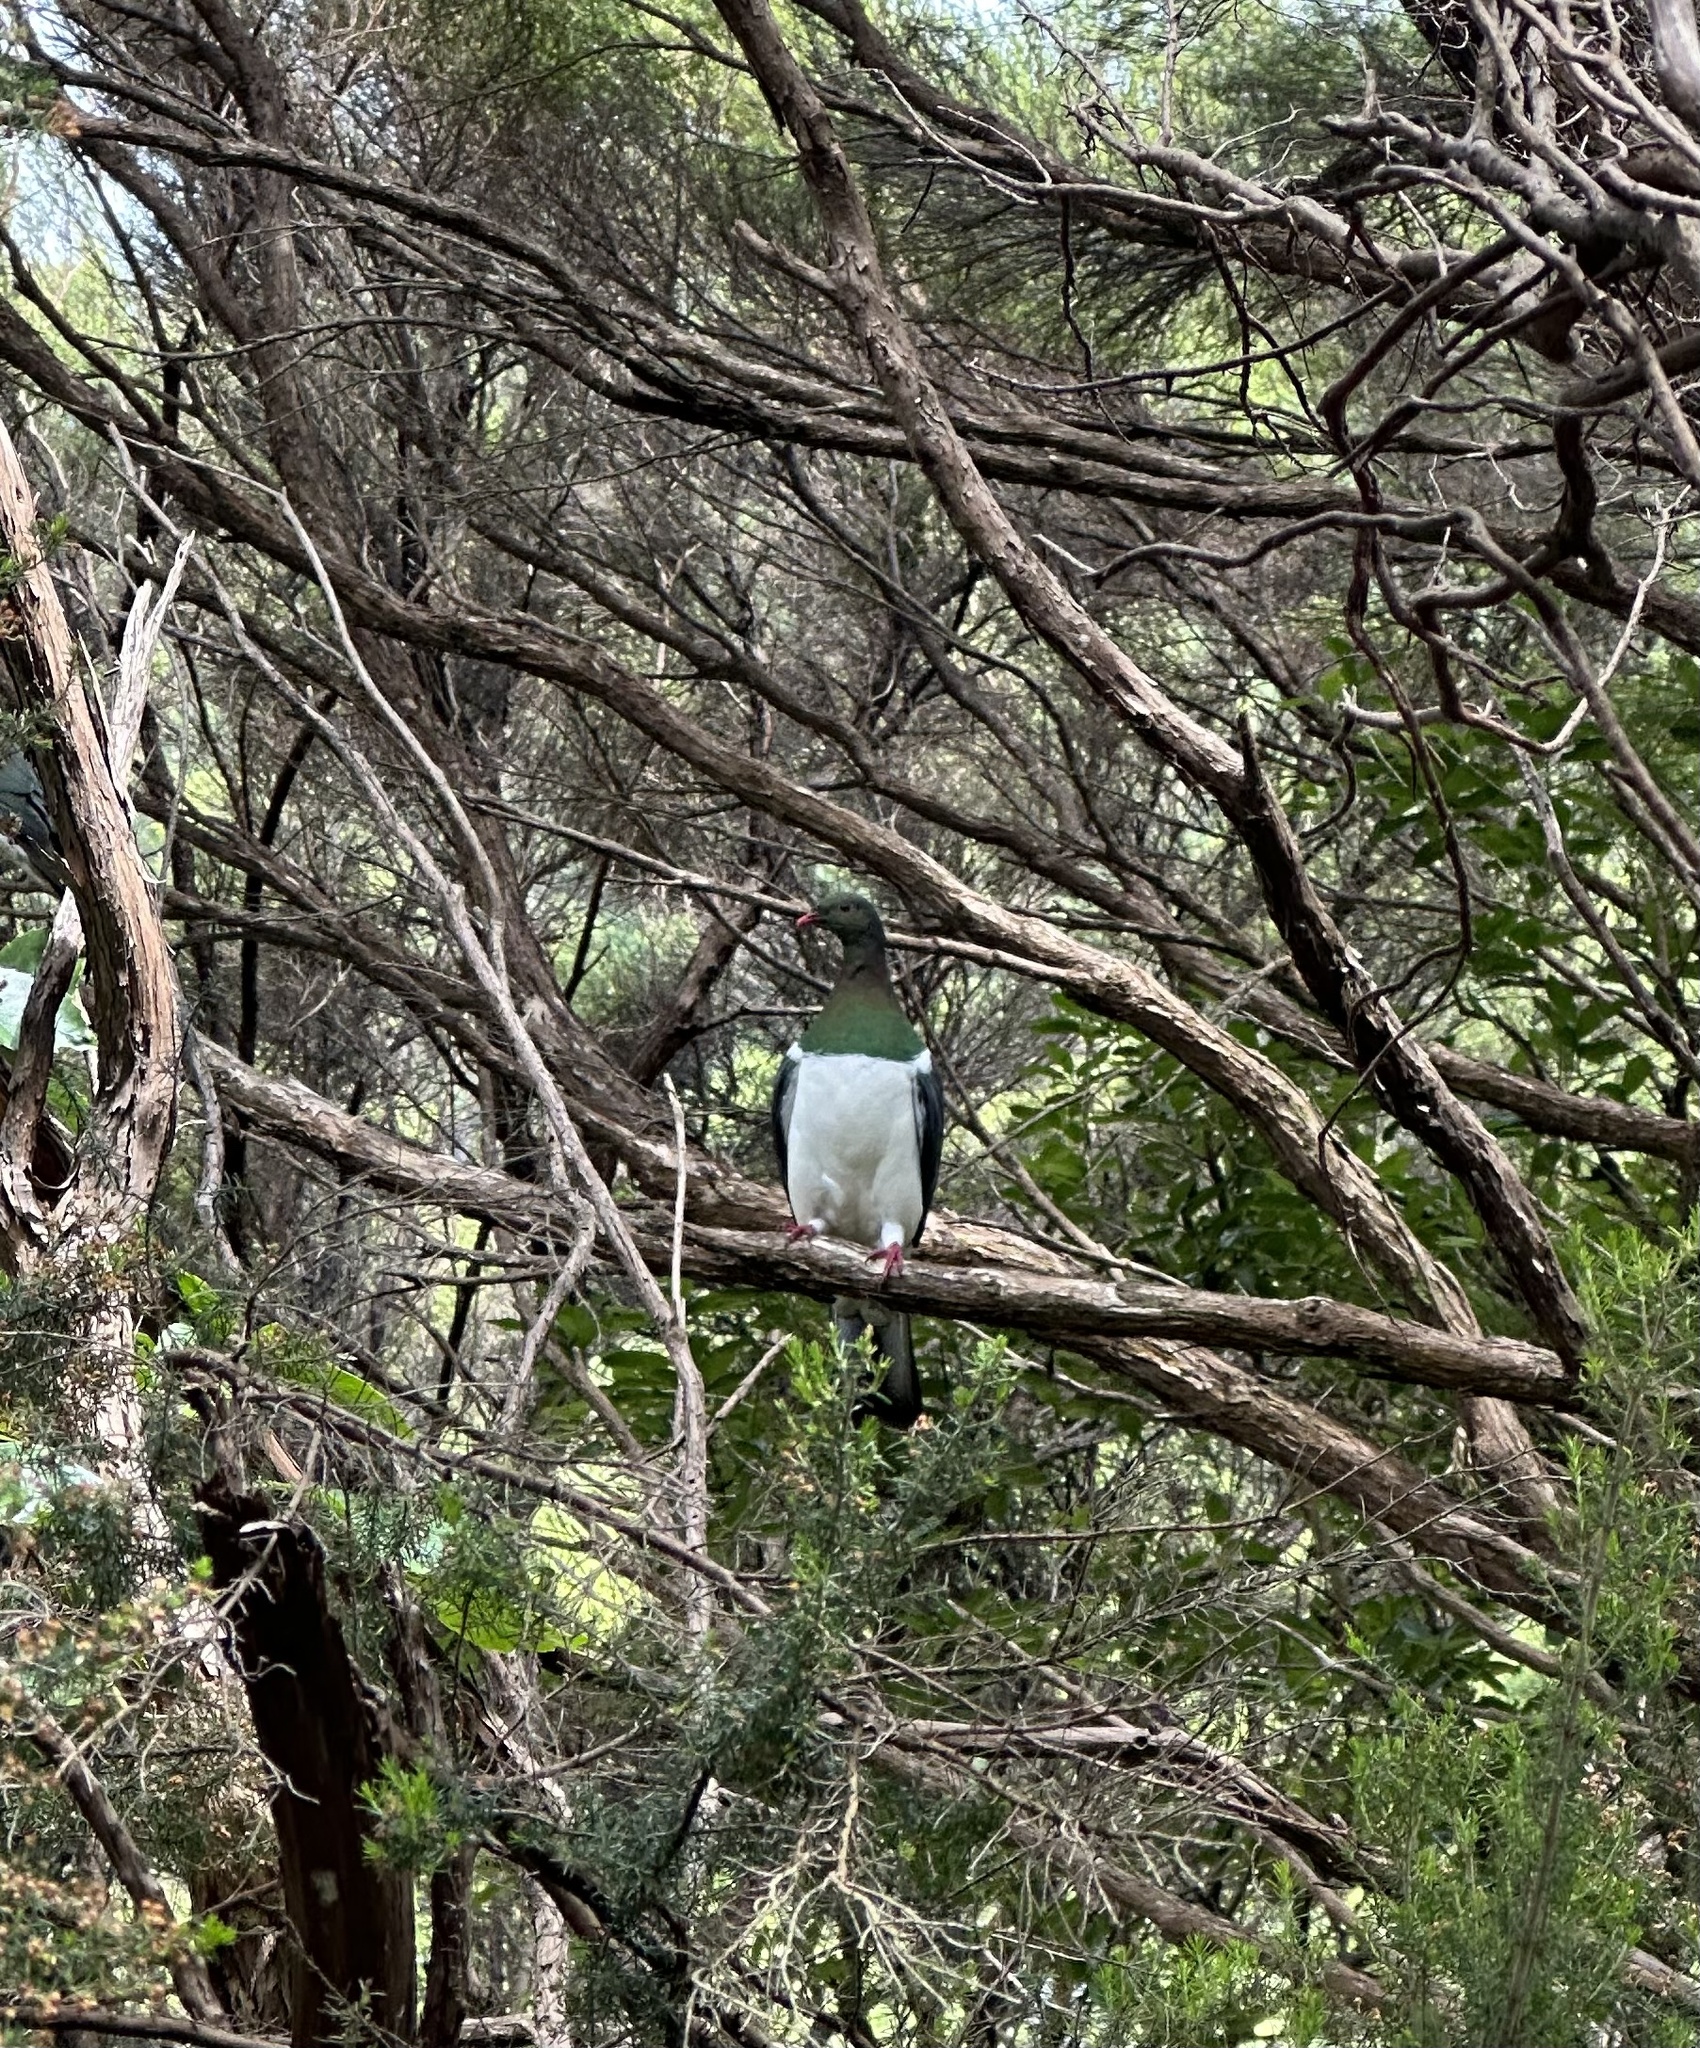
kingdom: Animalia
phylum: Chordata
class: Aves
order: Columbiformes
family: Columbidae
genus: Hemiphaga
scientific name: Hemiphaga novaeseelandiae
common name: New zealand pigeon
